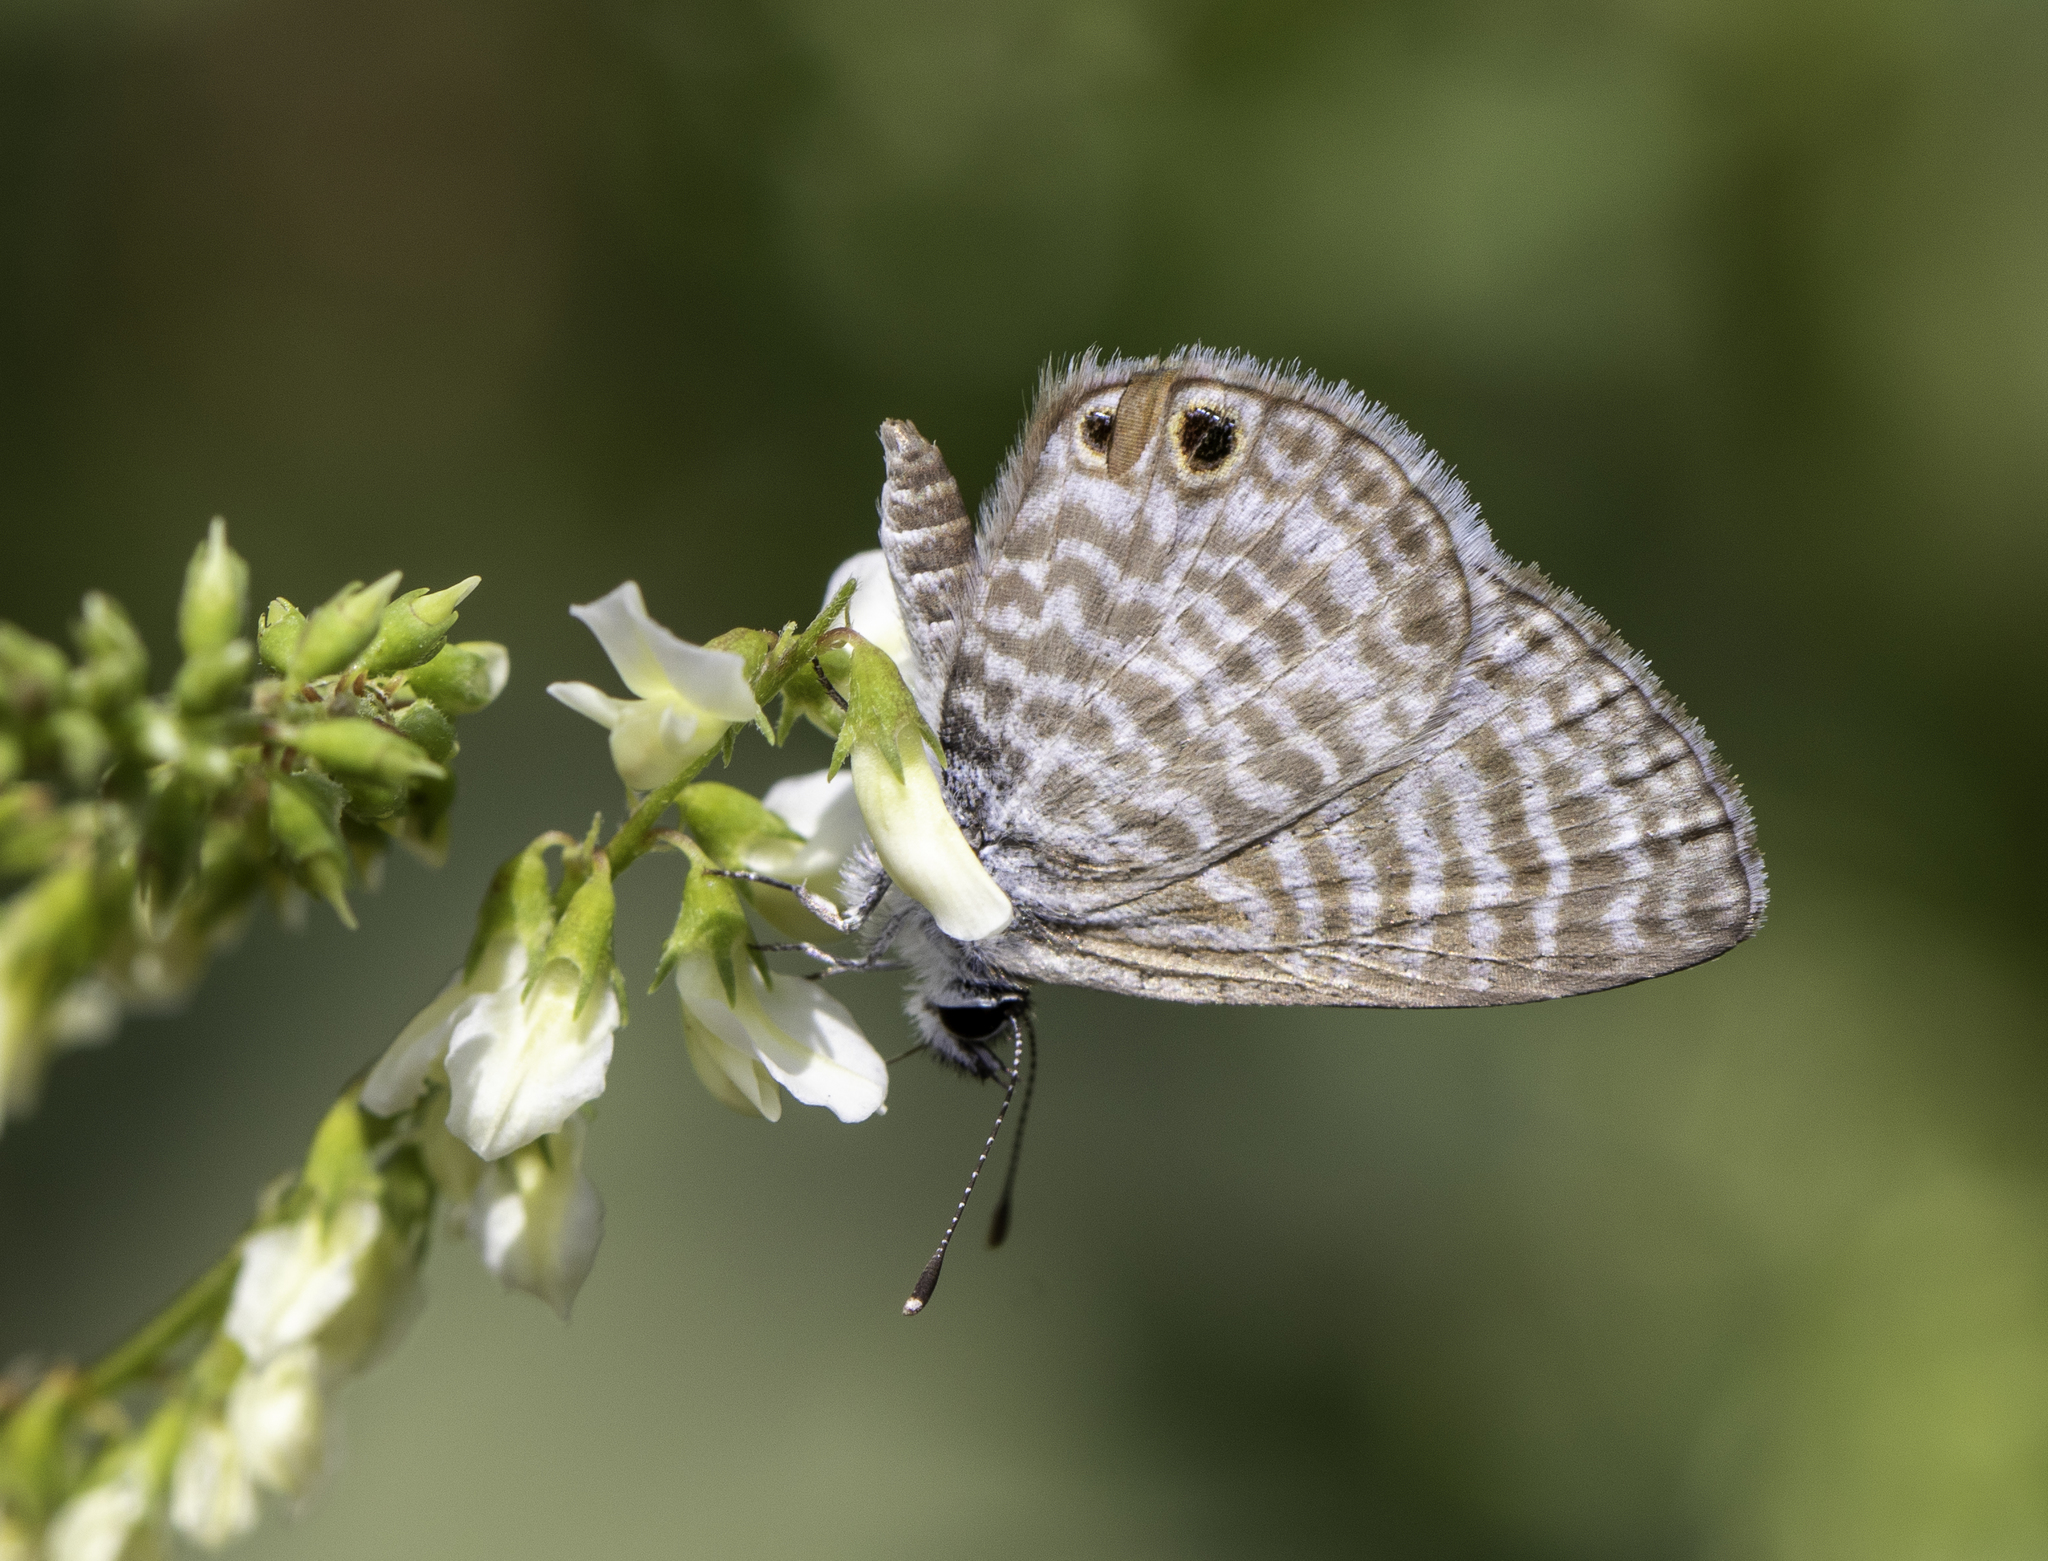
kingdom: Animalia
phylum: Arthropoda
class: Insecta
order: Lepidoptera
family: Lycaenidae
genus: Leptotes
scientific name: Leptotes marina
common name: Marine blue
